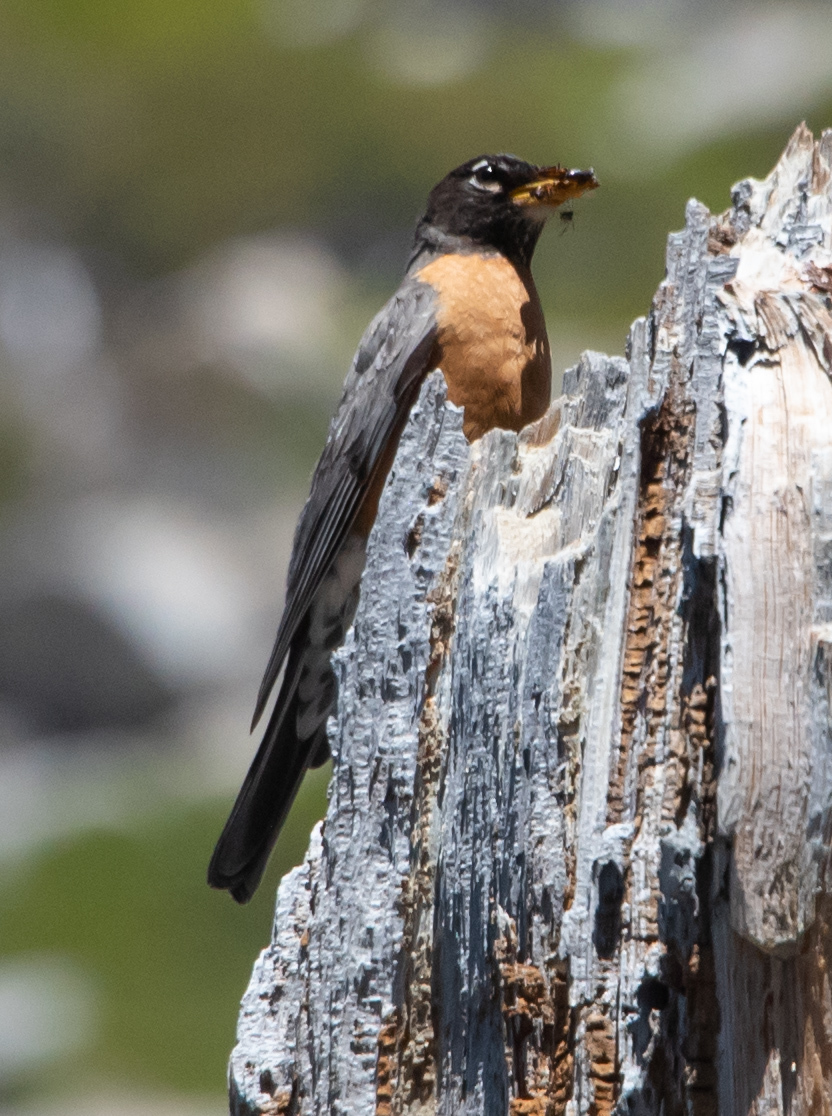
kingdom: Animalia
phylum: Chordata
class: Aves
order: Passeriformes
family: Turdidae
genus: Turdus
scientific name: Turdus migratorius
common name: American robin
